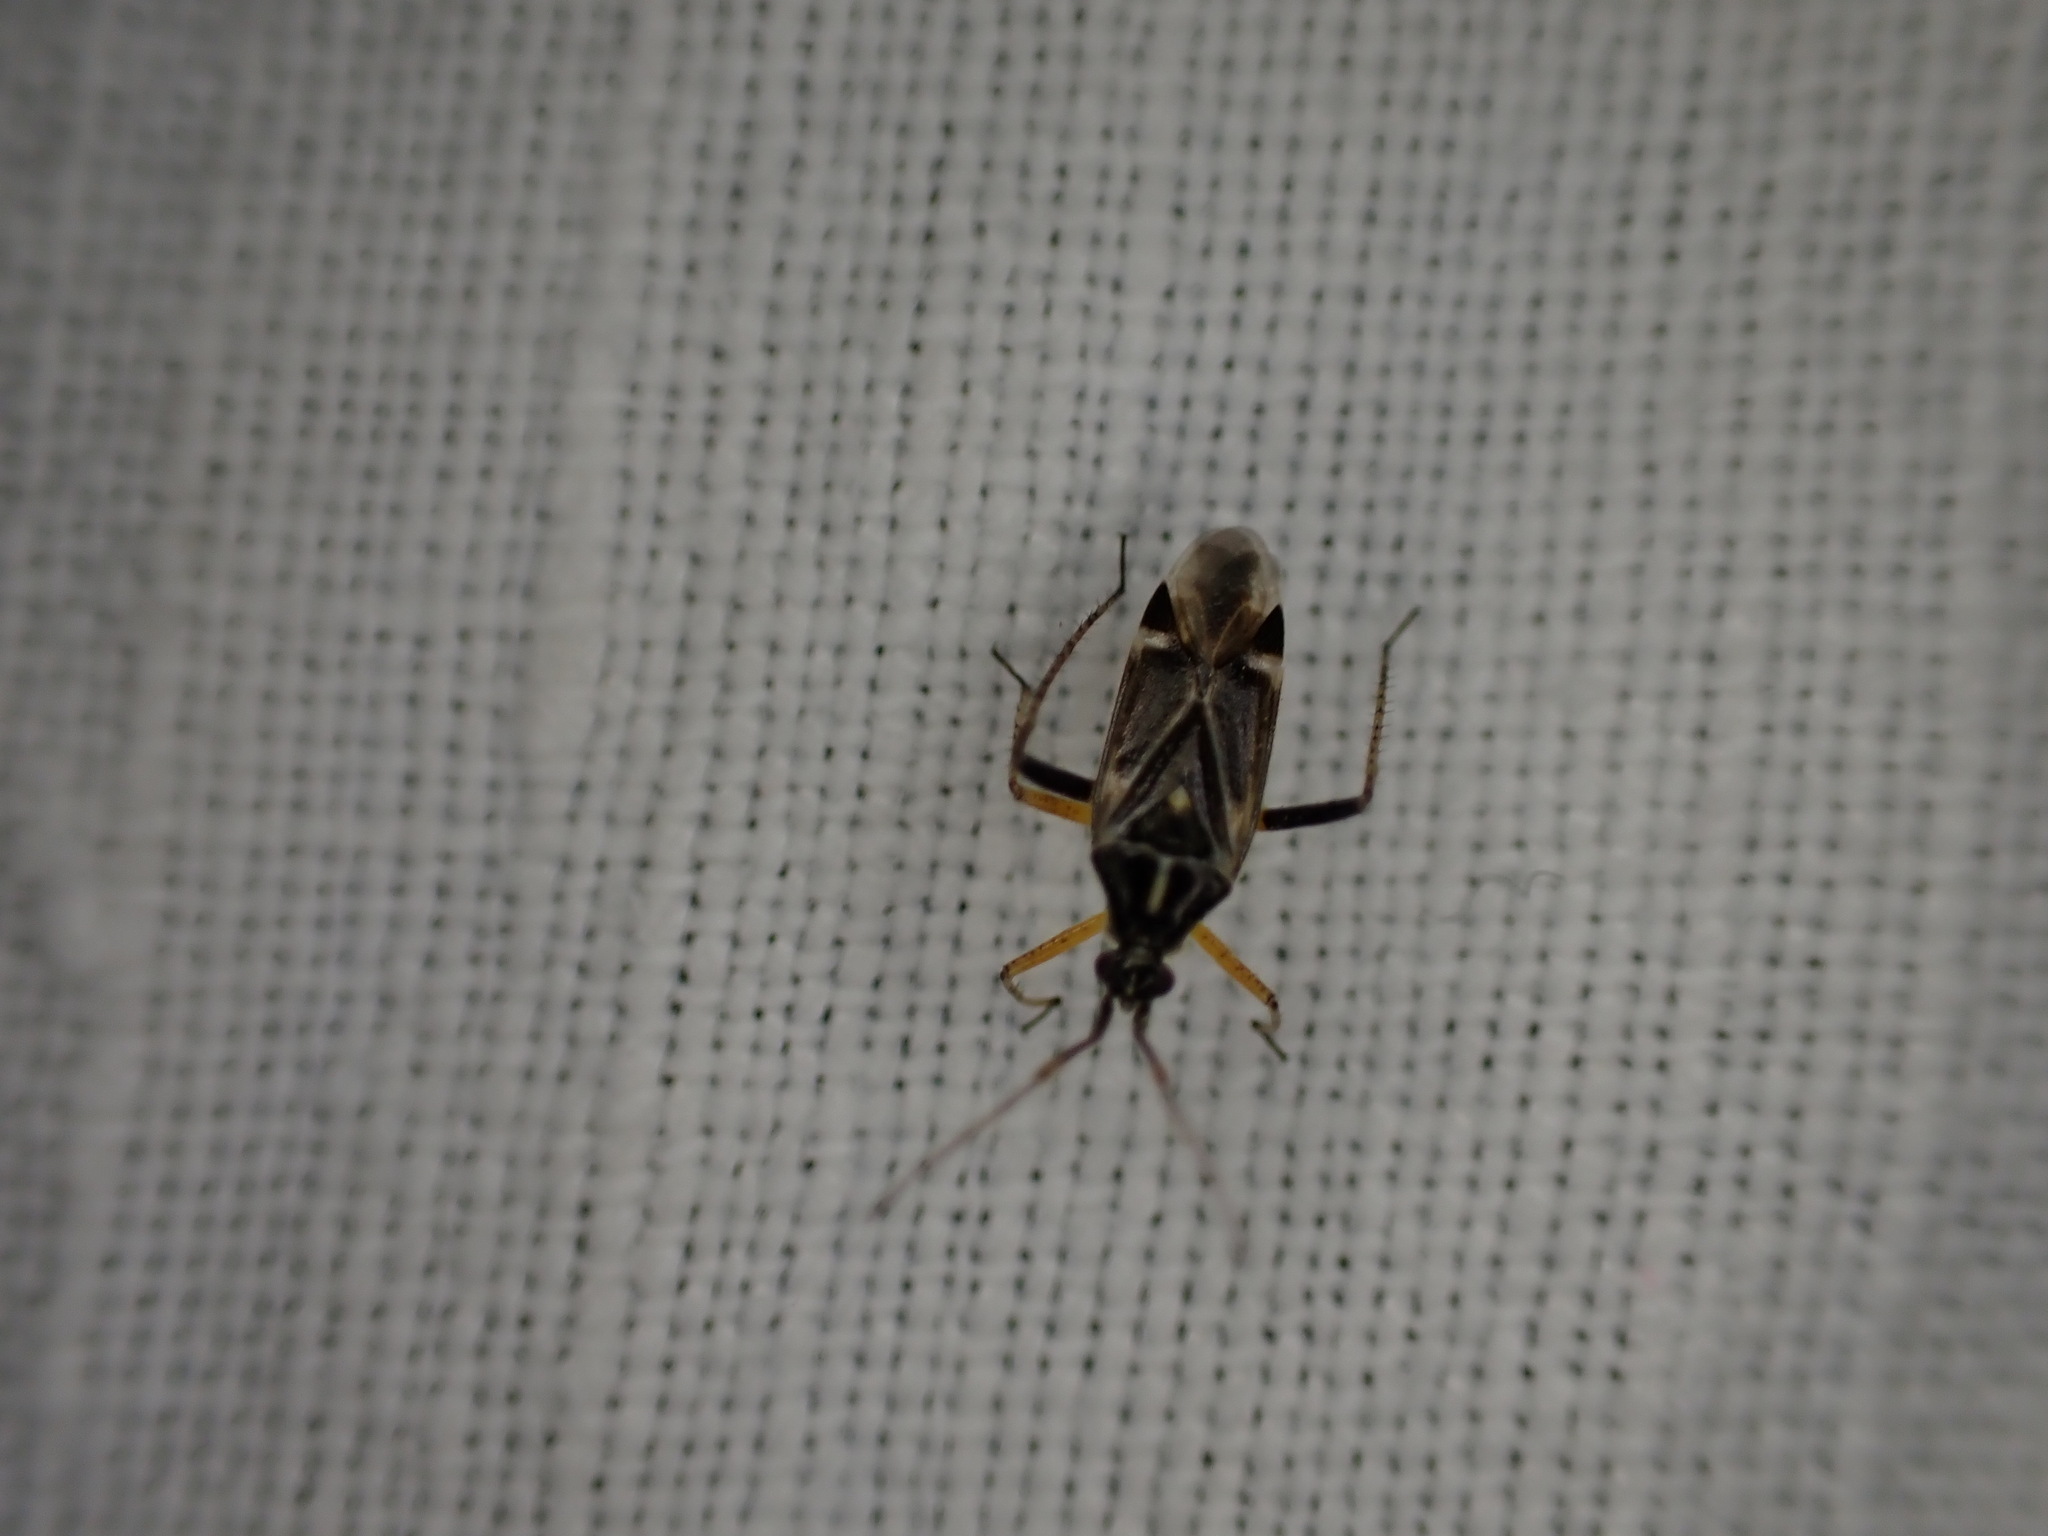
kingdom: Animalia
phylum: Arthropoda
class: Insecta
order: Hemiptera
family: Miridae
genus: Harpocera
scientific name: Harpocera thoracica
